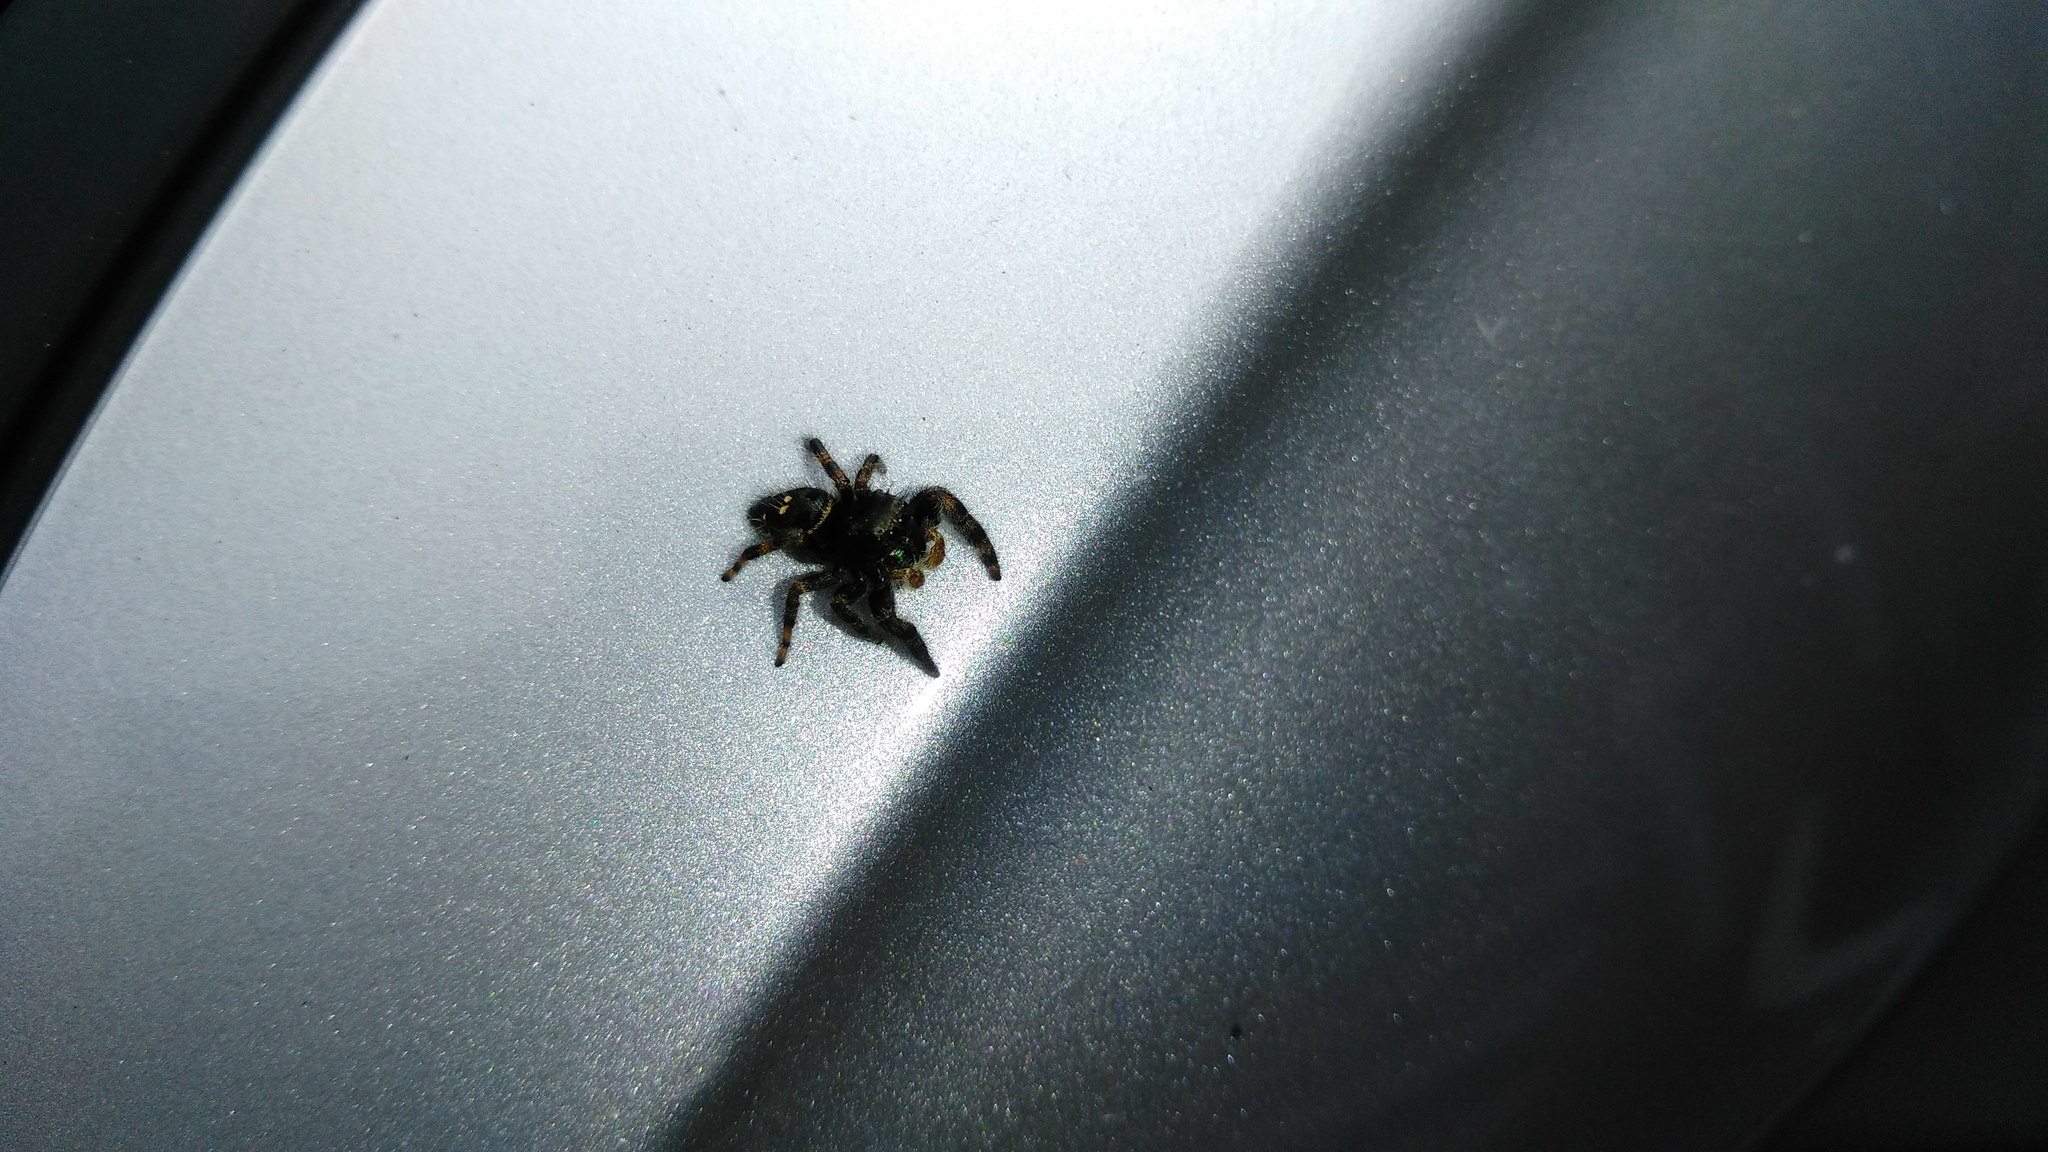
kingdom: Animalia
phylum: Arthropoda
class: Arachnida
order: Araneae
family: Salticidae
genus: Phidippus
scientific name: Phidippus audax
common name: Bold jumper
